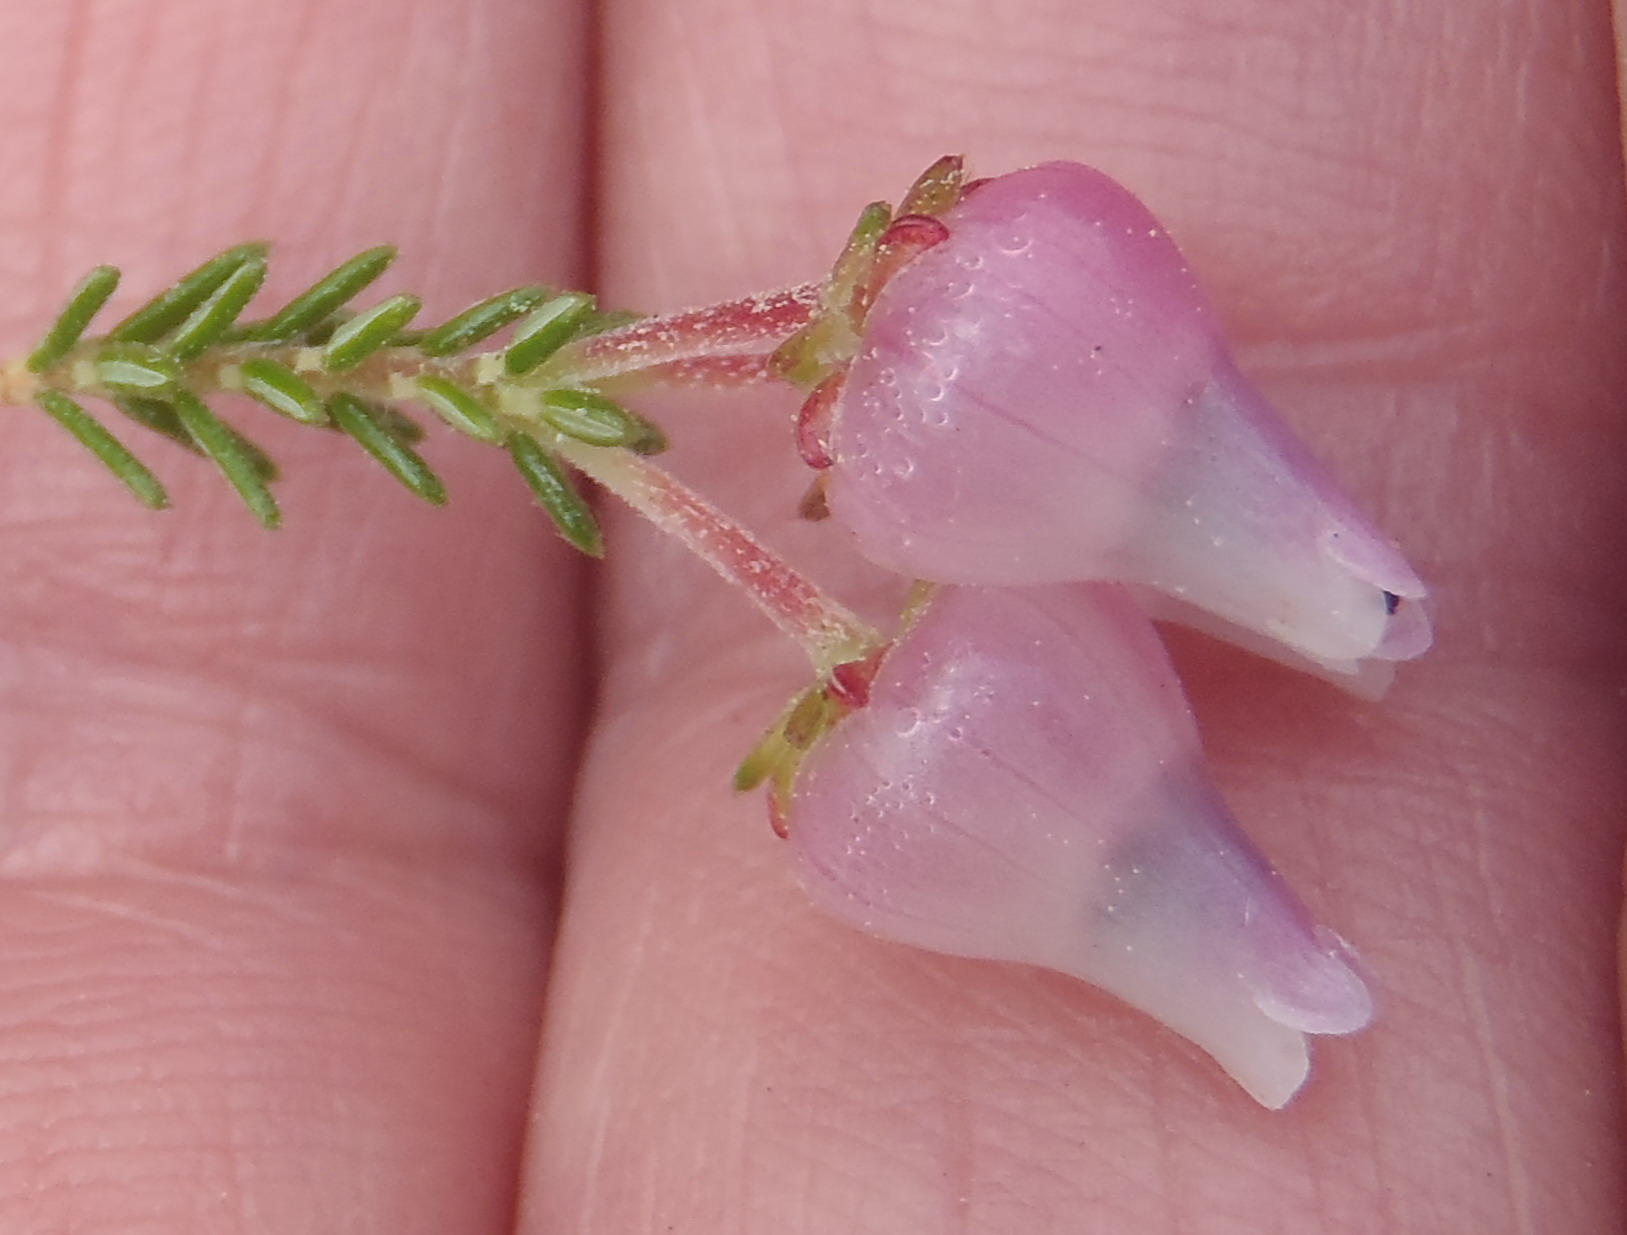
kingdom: Plantae
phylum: Tracheophyta
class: Magnoliopsida
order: Ericales
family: Ericaceae
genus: Erica
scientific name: Erica glomiflora
